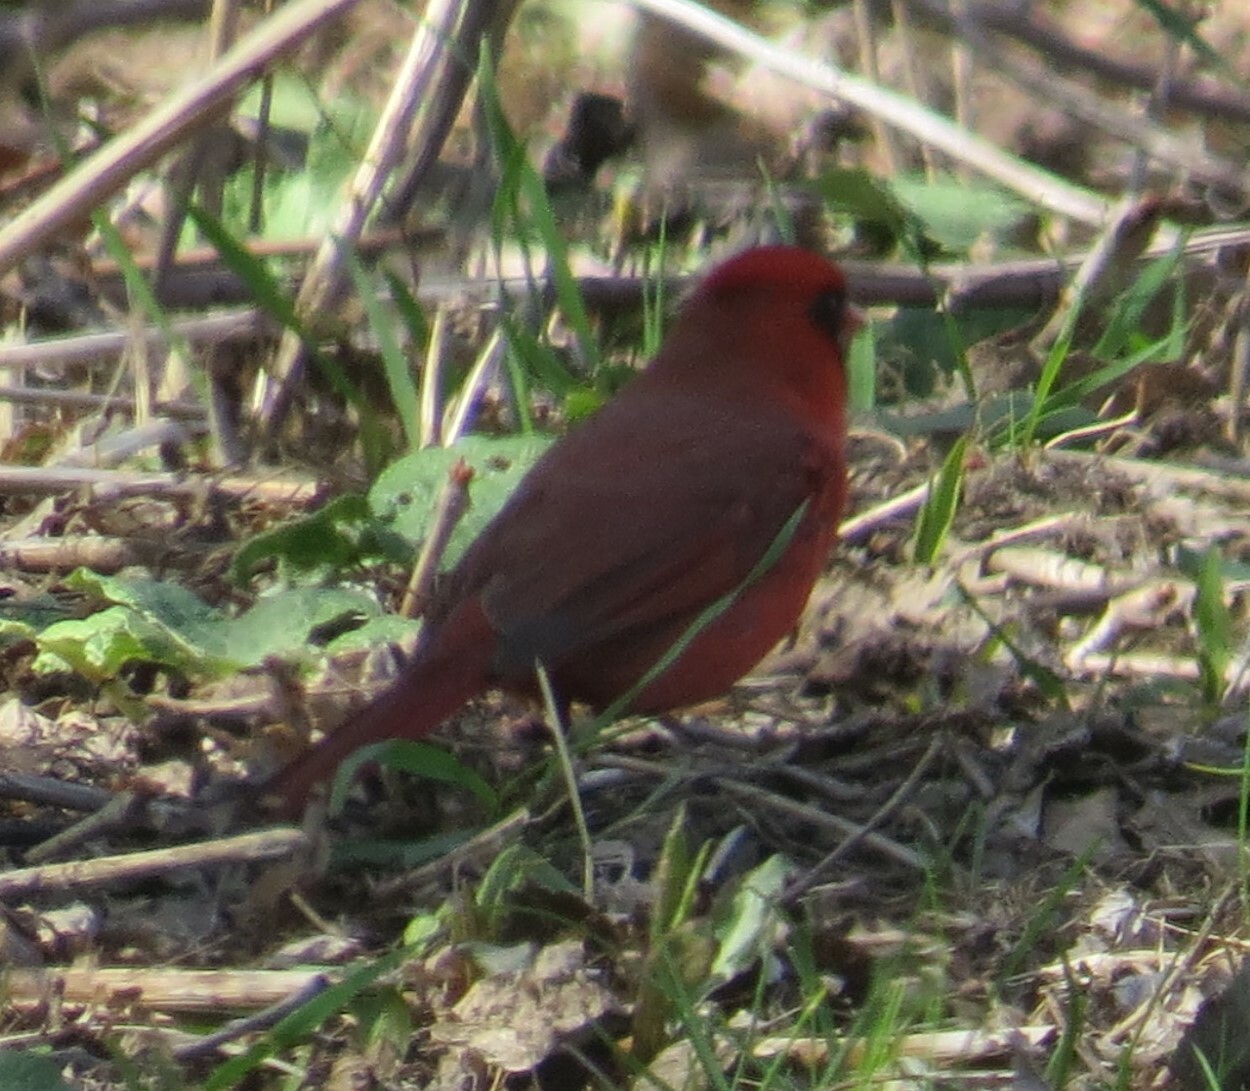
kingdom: Animalia
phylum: Chordata
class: Aves
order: Passeriformes
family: Cardinalidae
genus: Cardinalis
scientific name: Cardinalis cardinalis
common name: Northern cardinal
